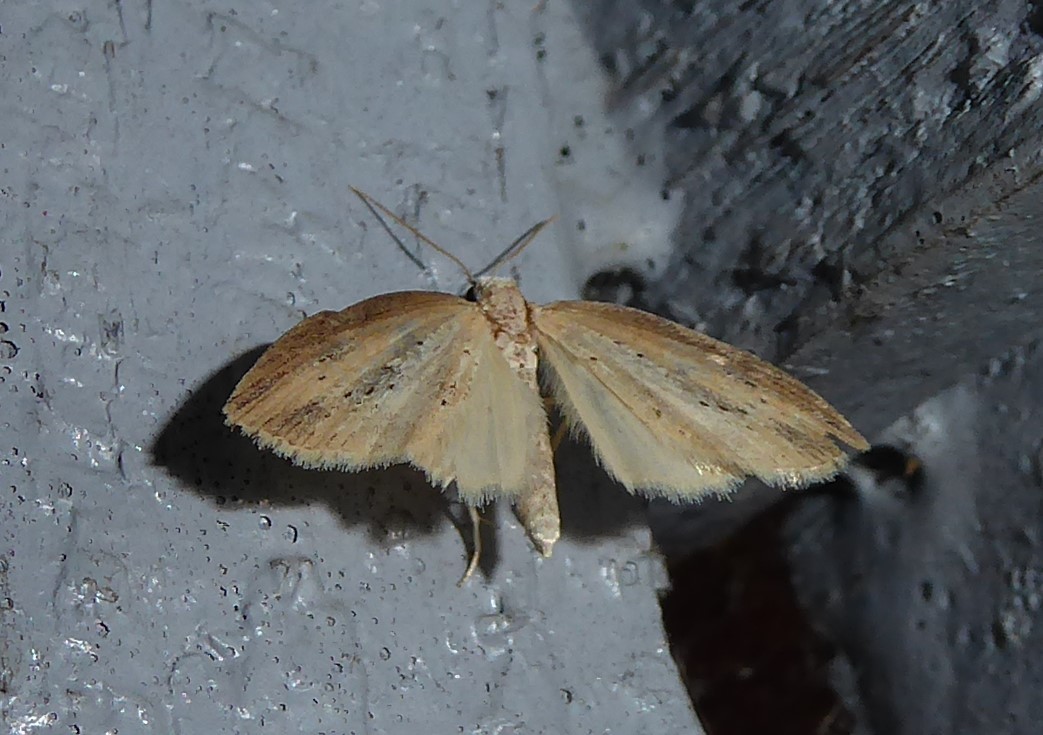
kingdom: Animalia
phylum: Arthropoda
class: Insecta
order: Lepidoptera
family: Geometridae
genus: Microdes
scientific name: Microdes epicryptis
